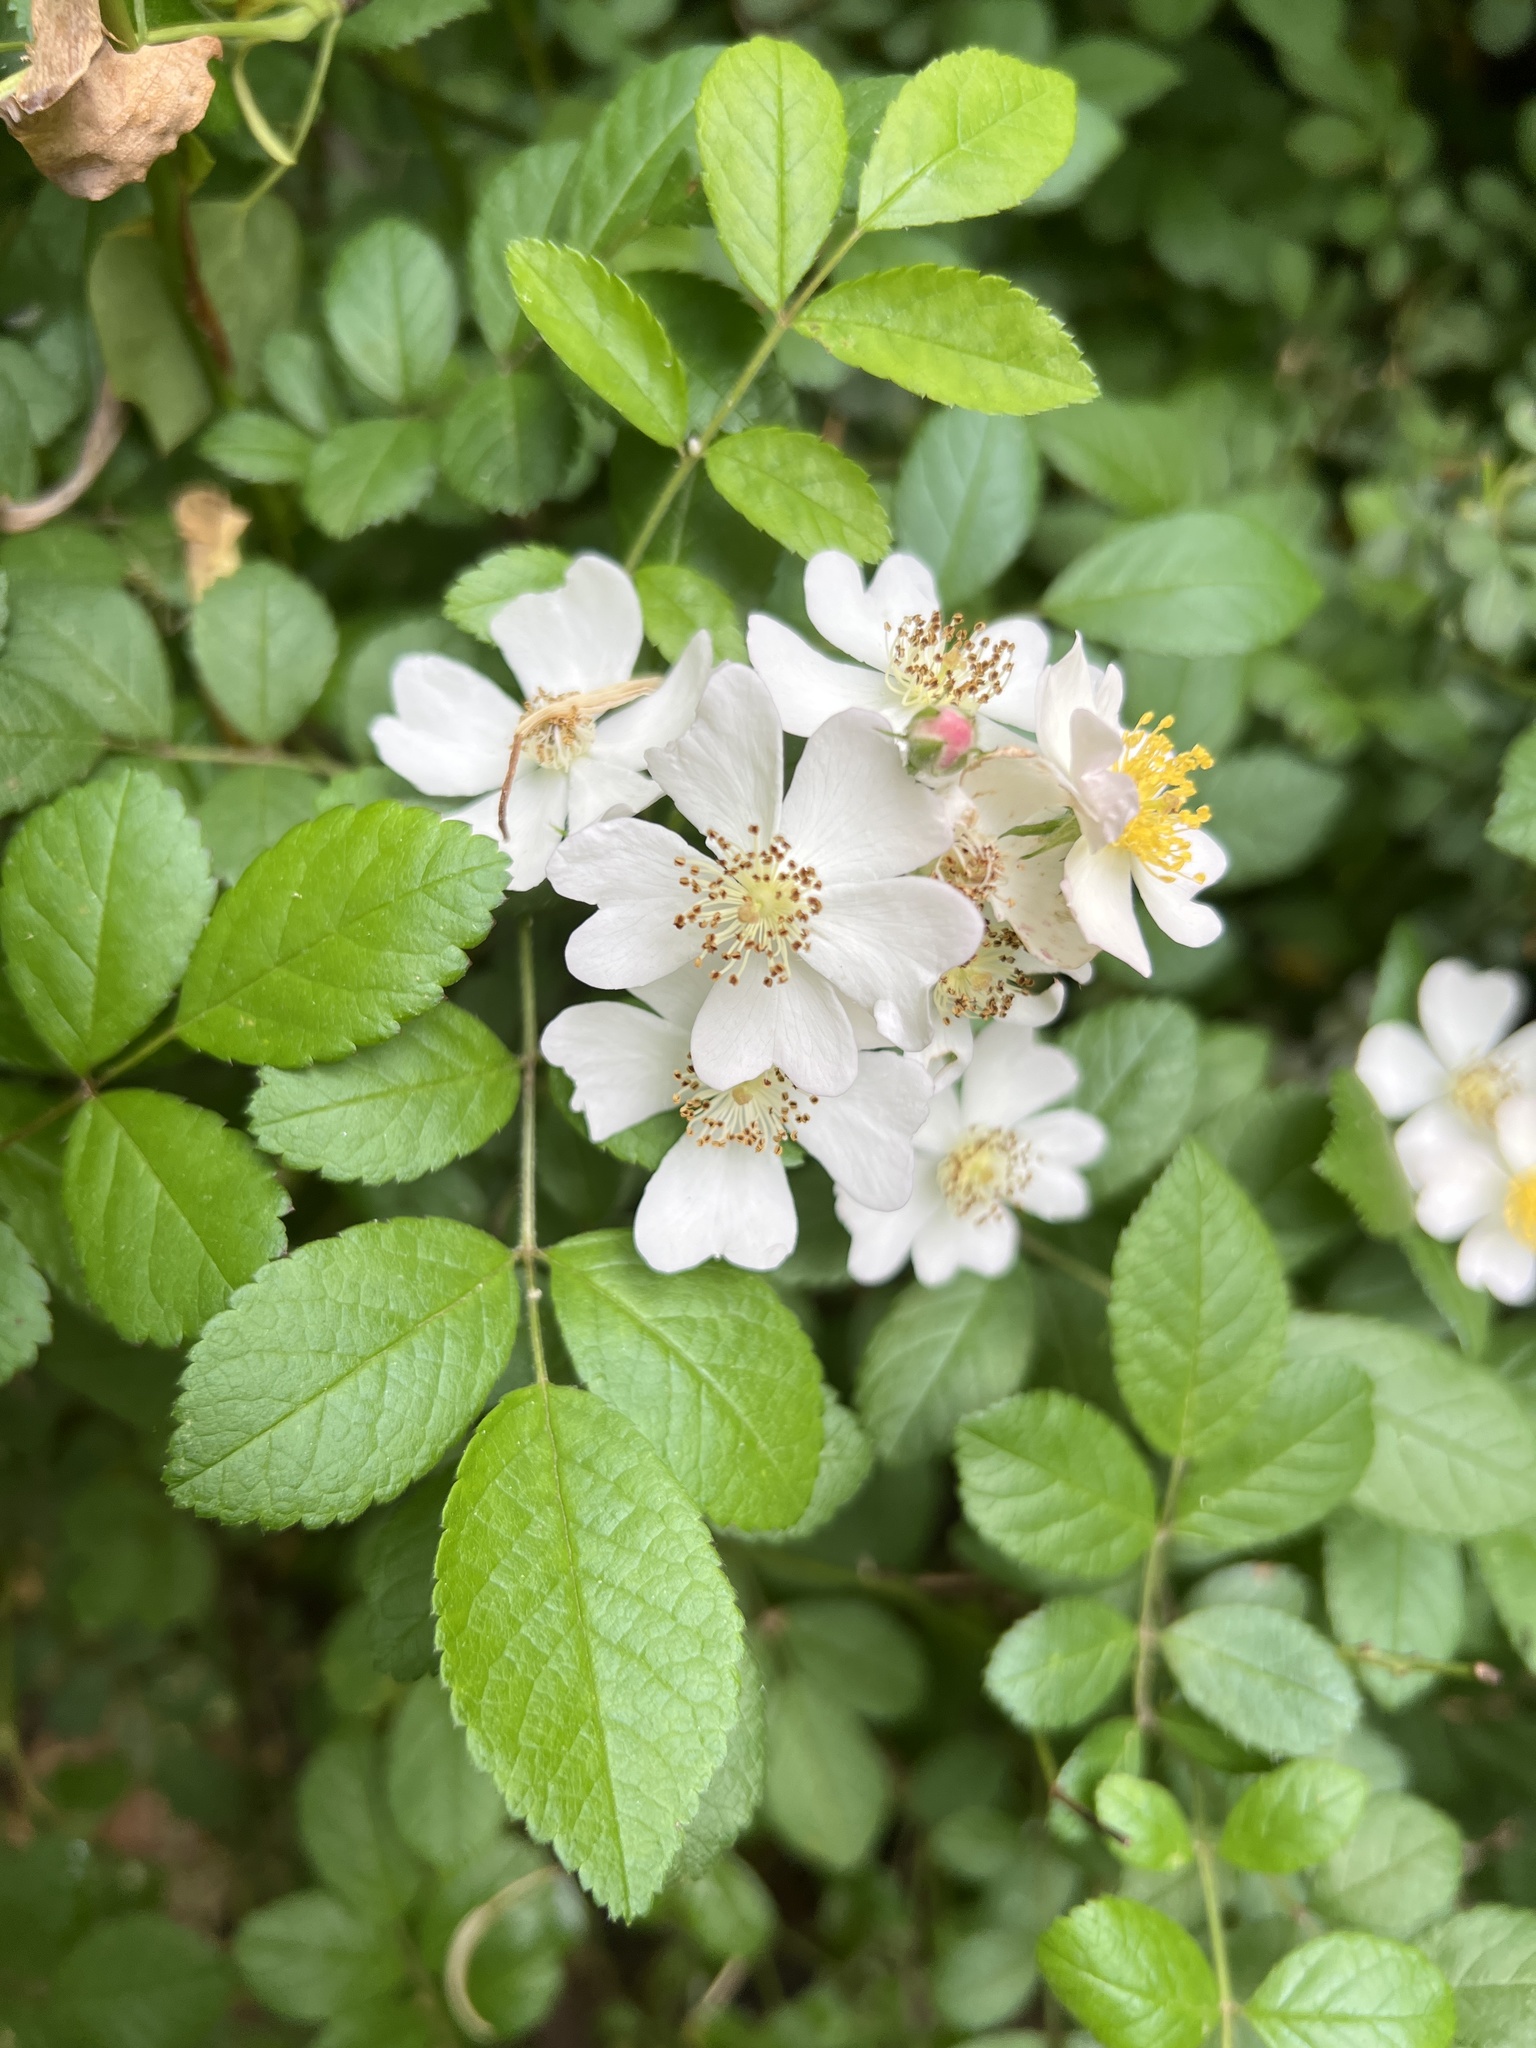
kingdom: Plantae
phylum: Tracheophyta
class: Magnoliopsida
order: Rosales
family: Rosaceae
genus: Rosa
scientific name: Rosa multiflora
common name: Multiflora rose
